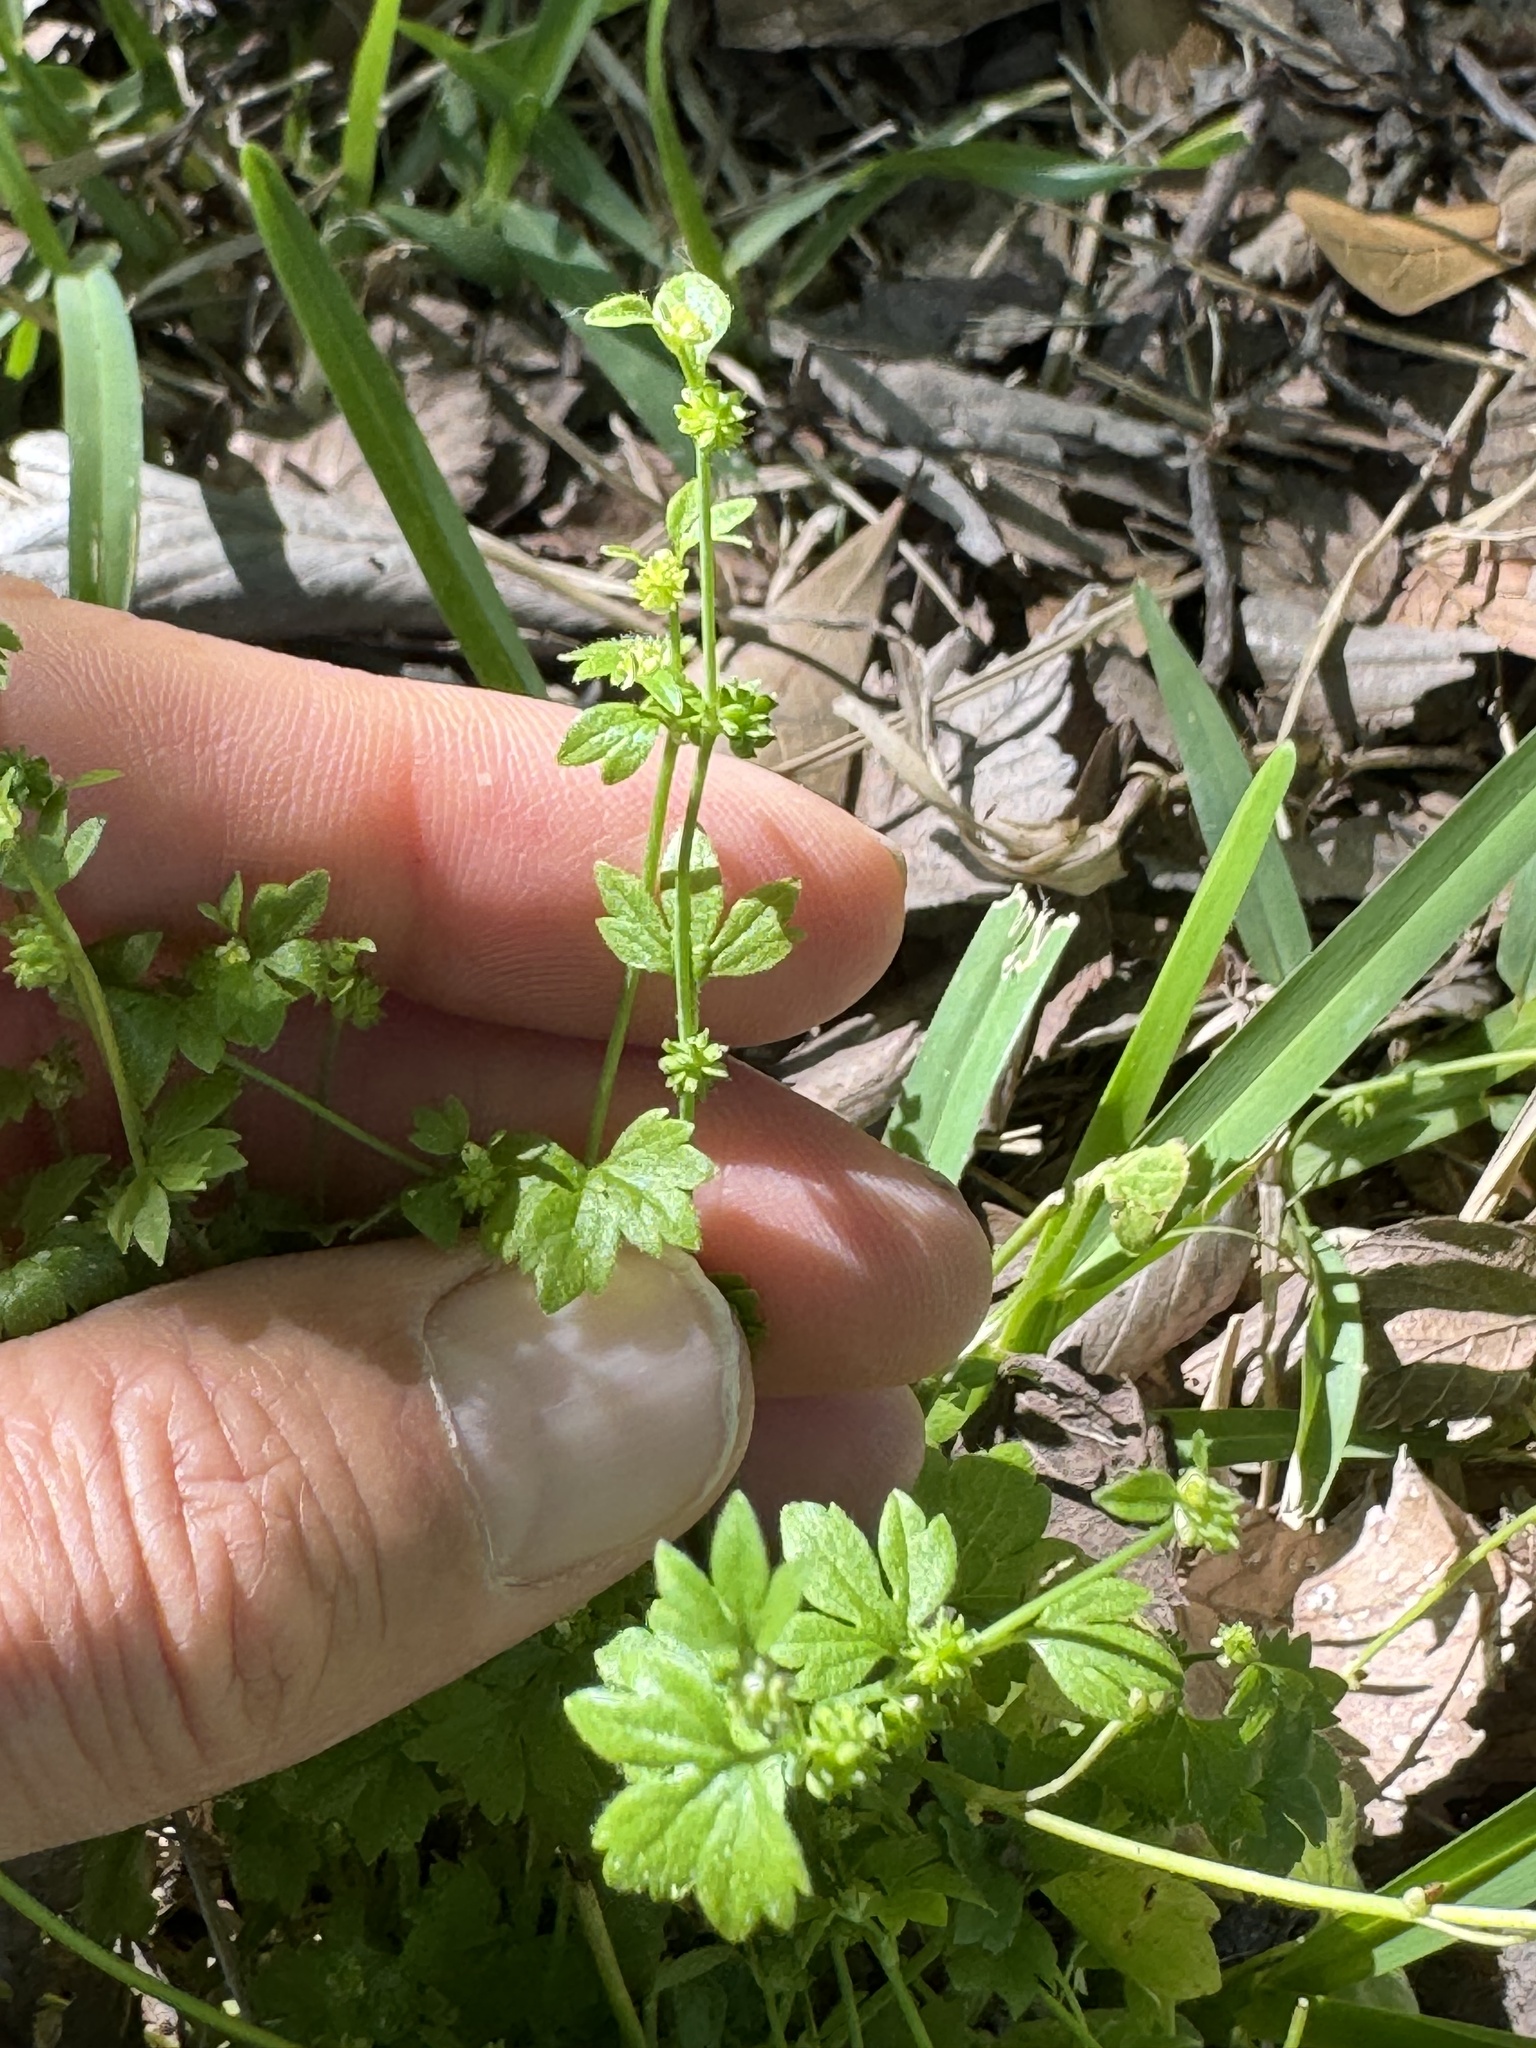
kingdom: Plantae
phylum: Tracheophyta
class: Magnoliopsida
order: Ranunculales
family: Ranunculaceae
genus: Ranunculus
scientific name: Ranunculus platensis
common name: Prairie buttercup
